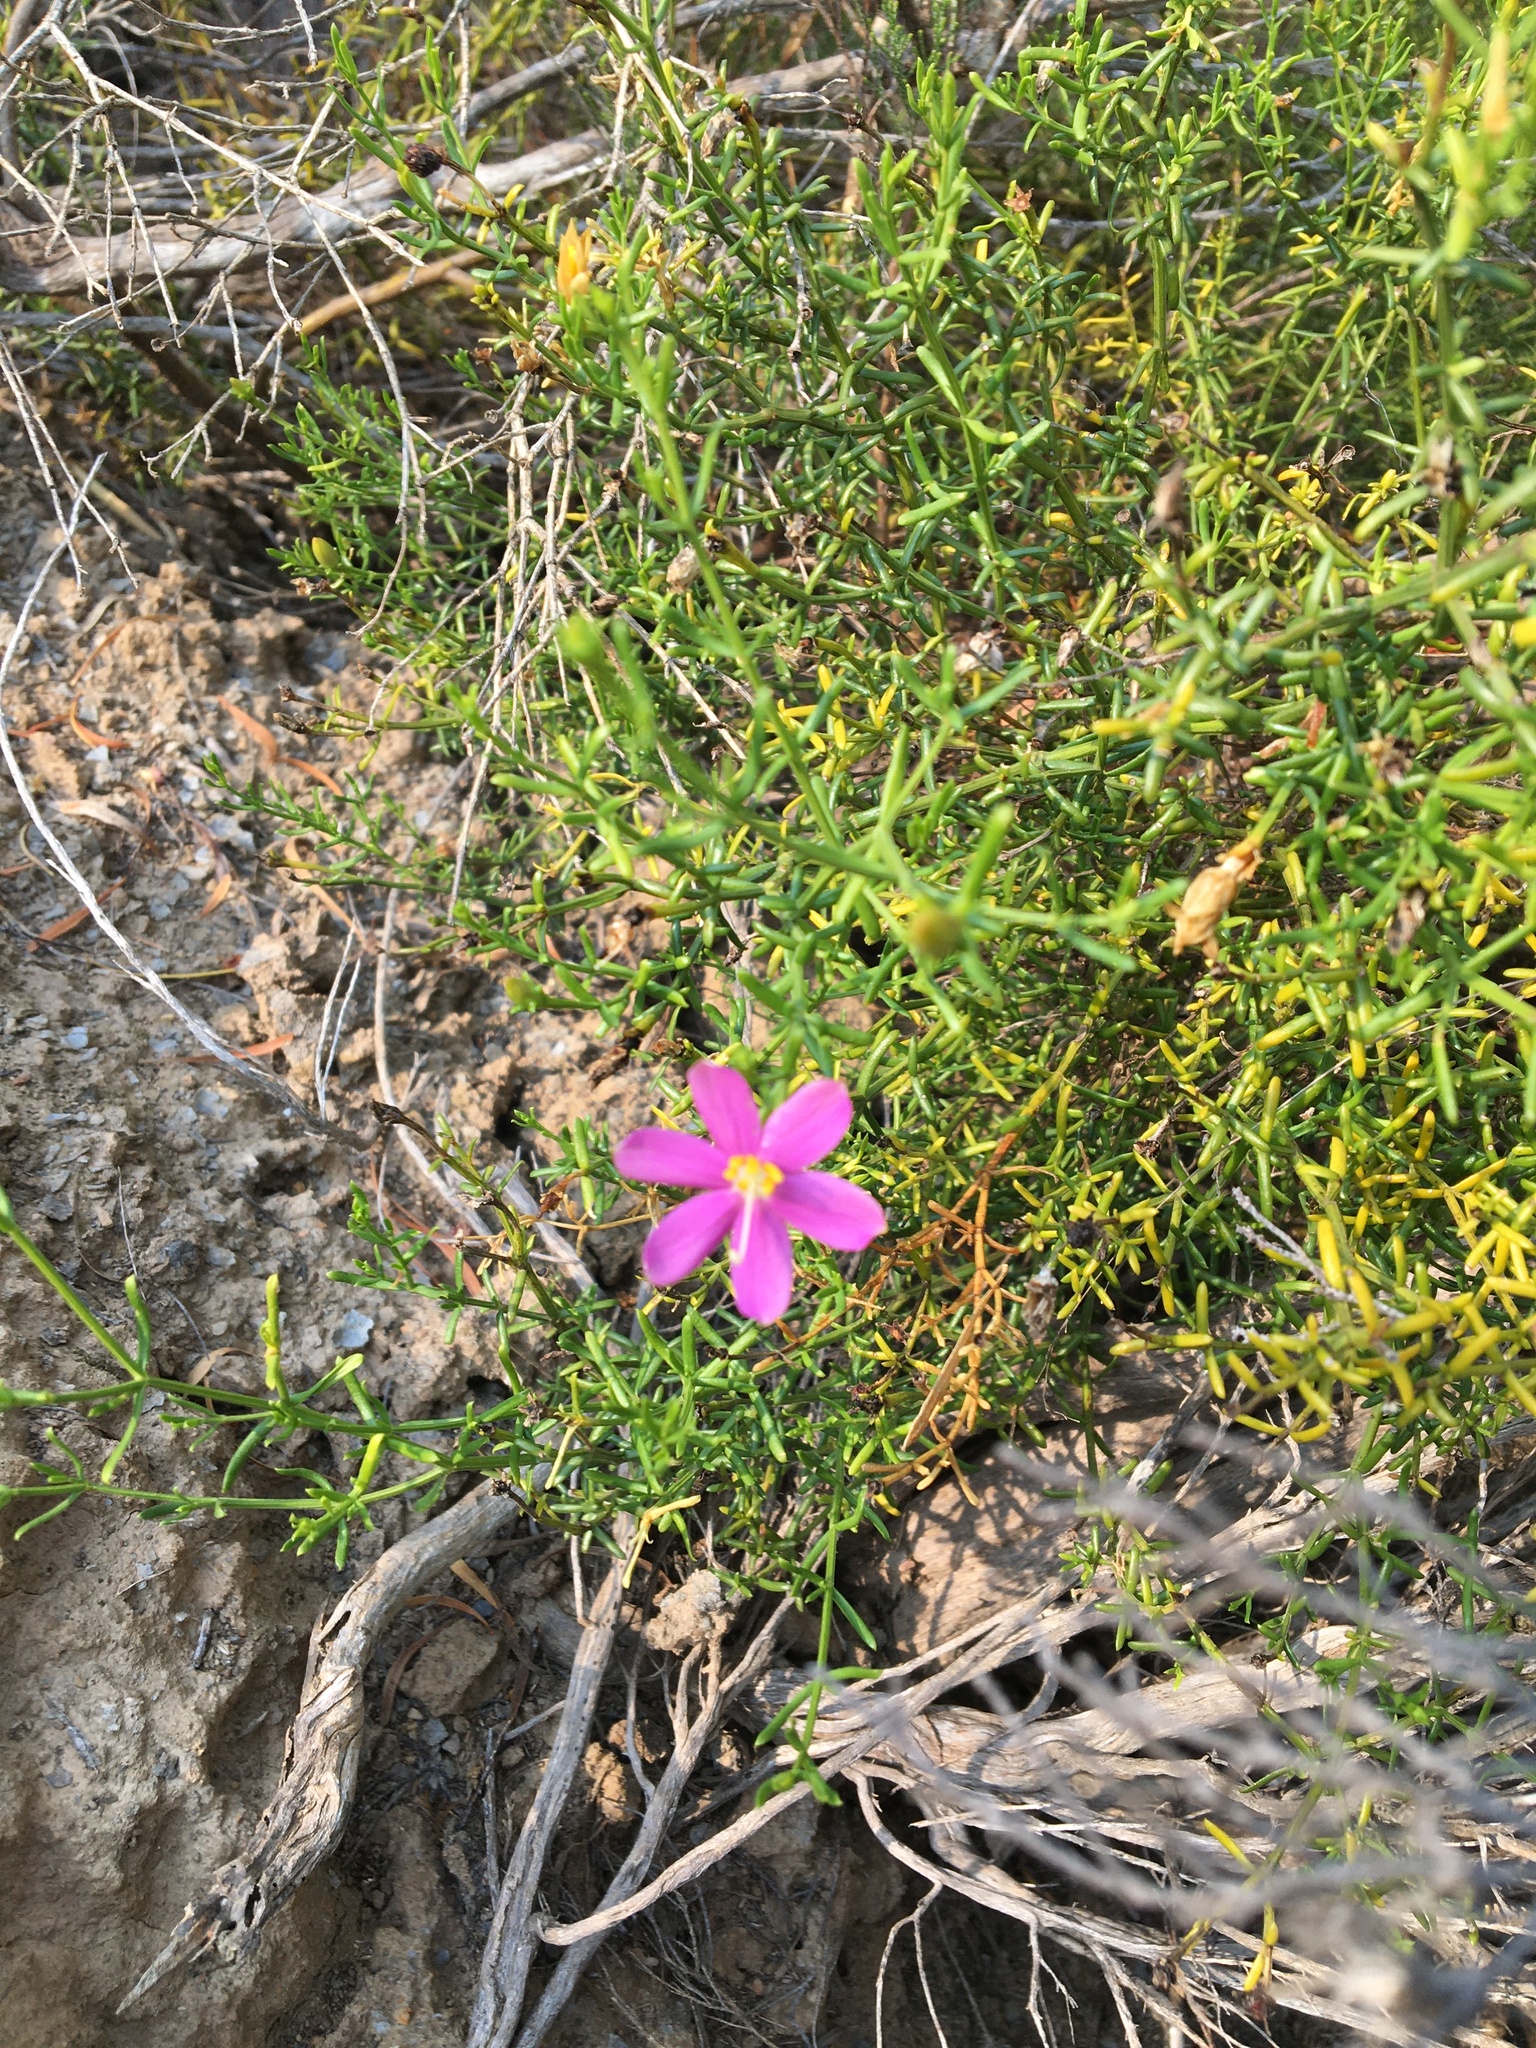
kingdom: Plantae
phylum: Tracheophyta
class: Magnoliopsida
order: Gentianales
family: Gentianaceae
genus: Chironia
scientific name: Chironia baccifera
